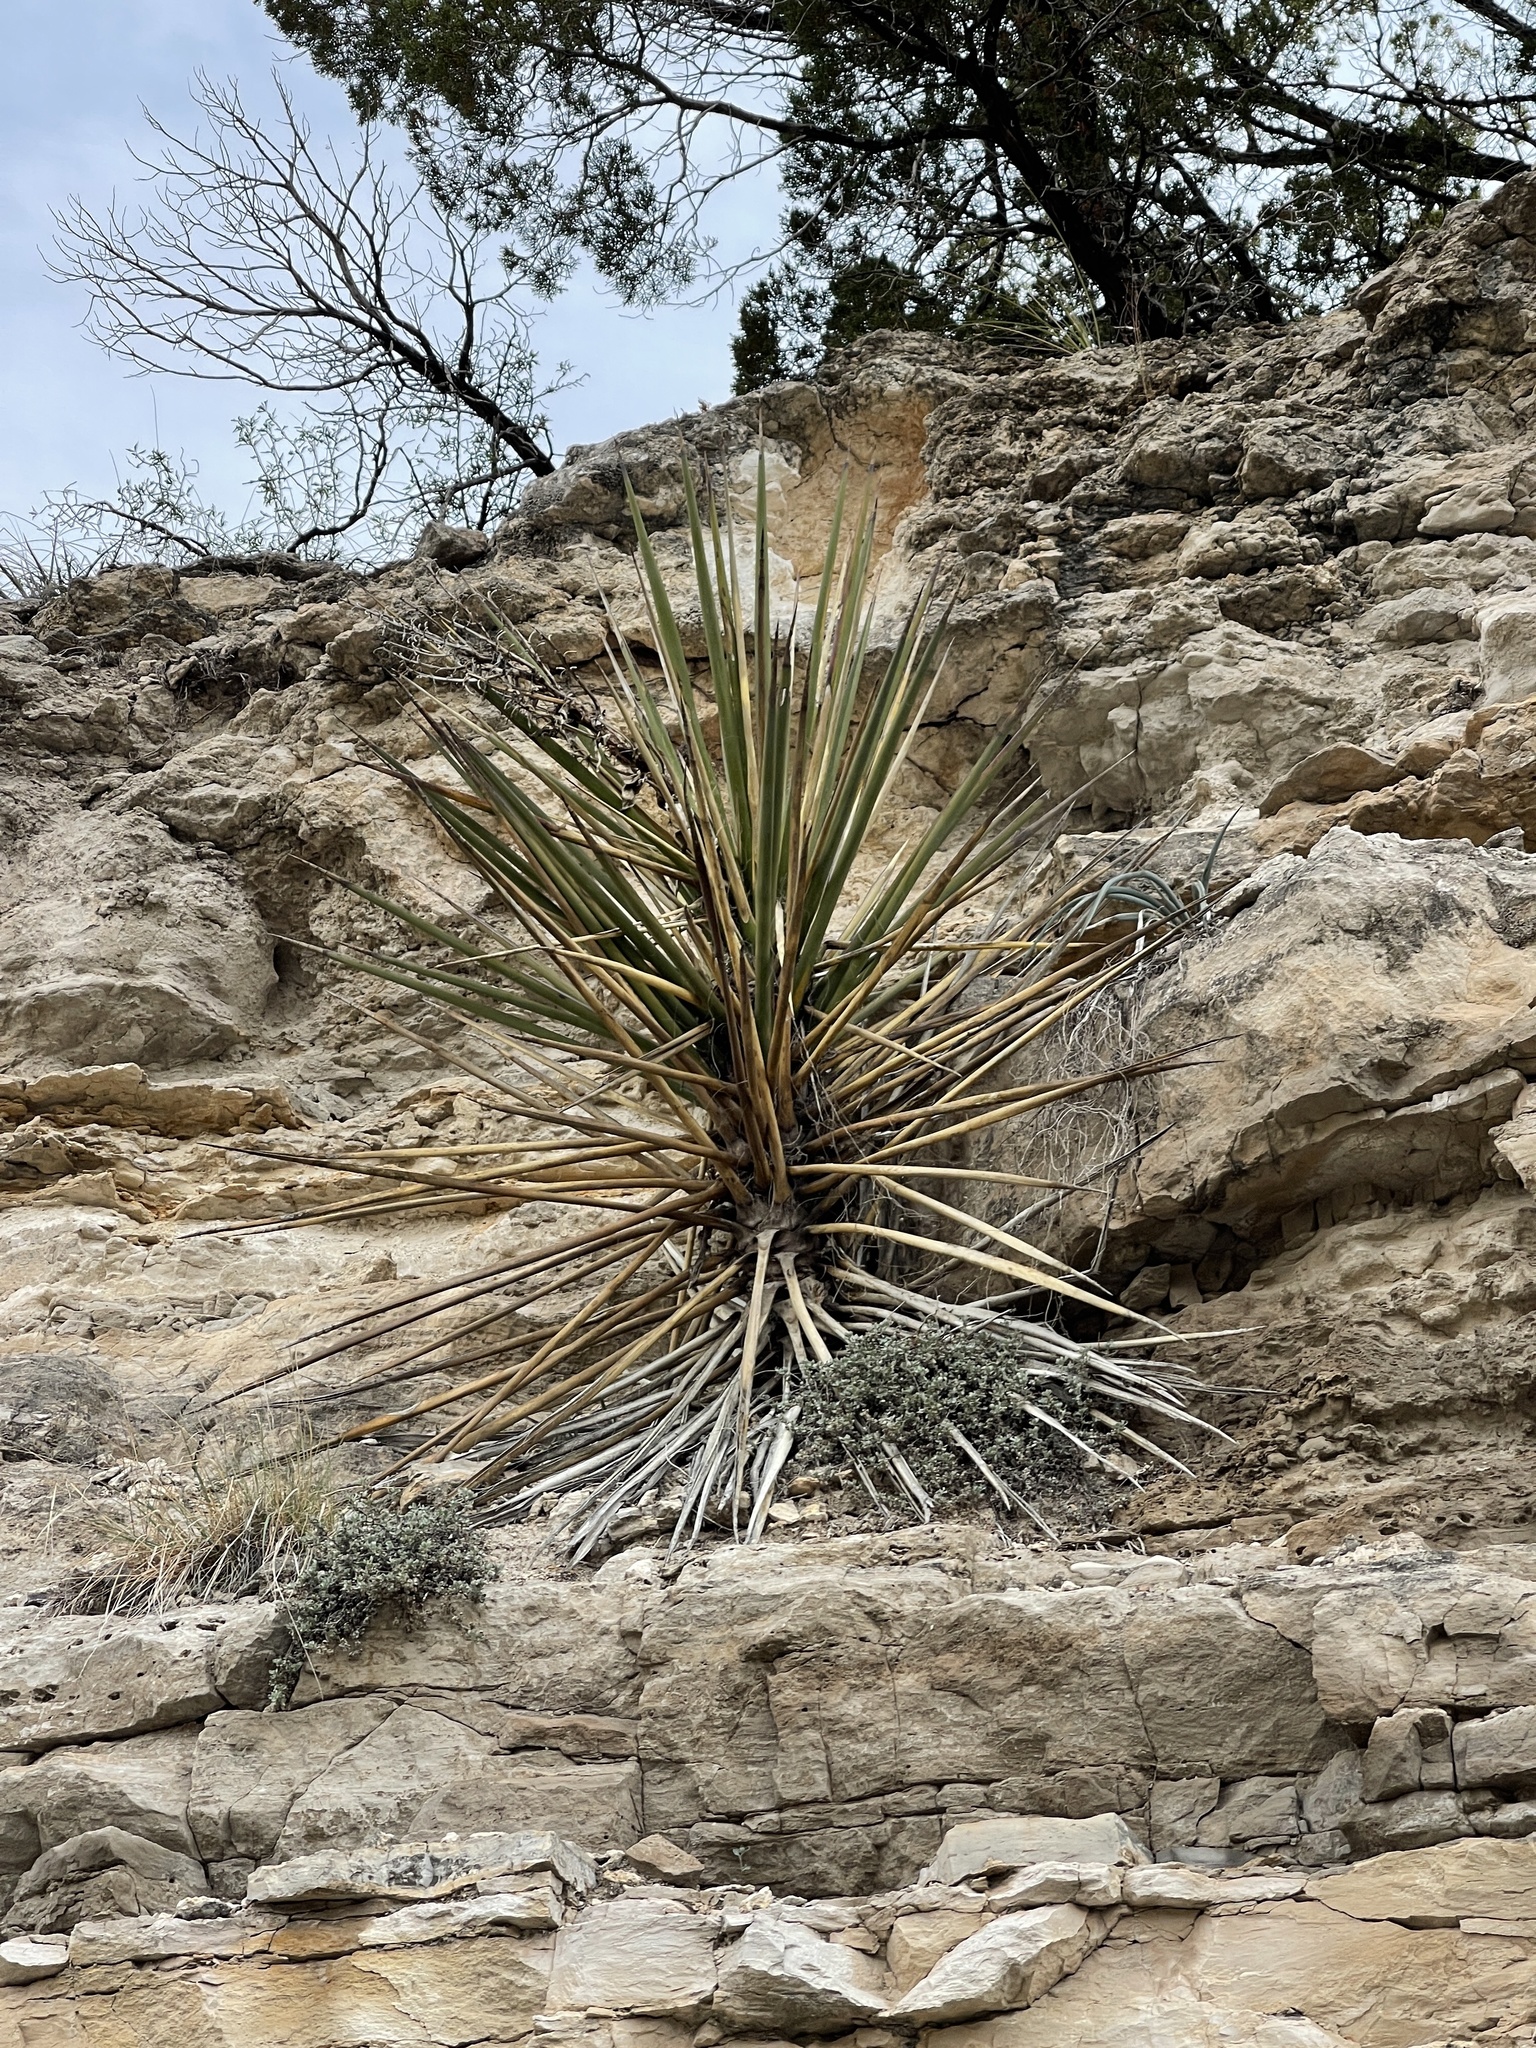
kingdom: Plantae
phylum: Tracheophyta
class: Liliopsida
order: Asparagales
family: Asparagaceae
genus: Yucca
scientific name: Yucca treculiana
